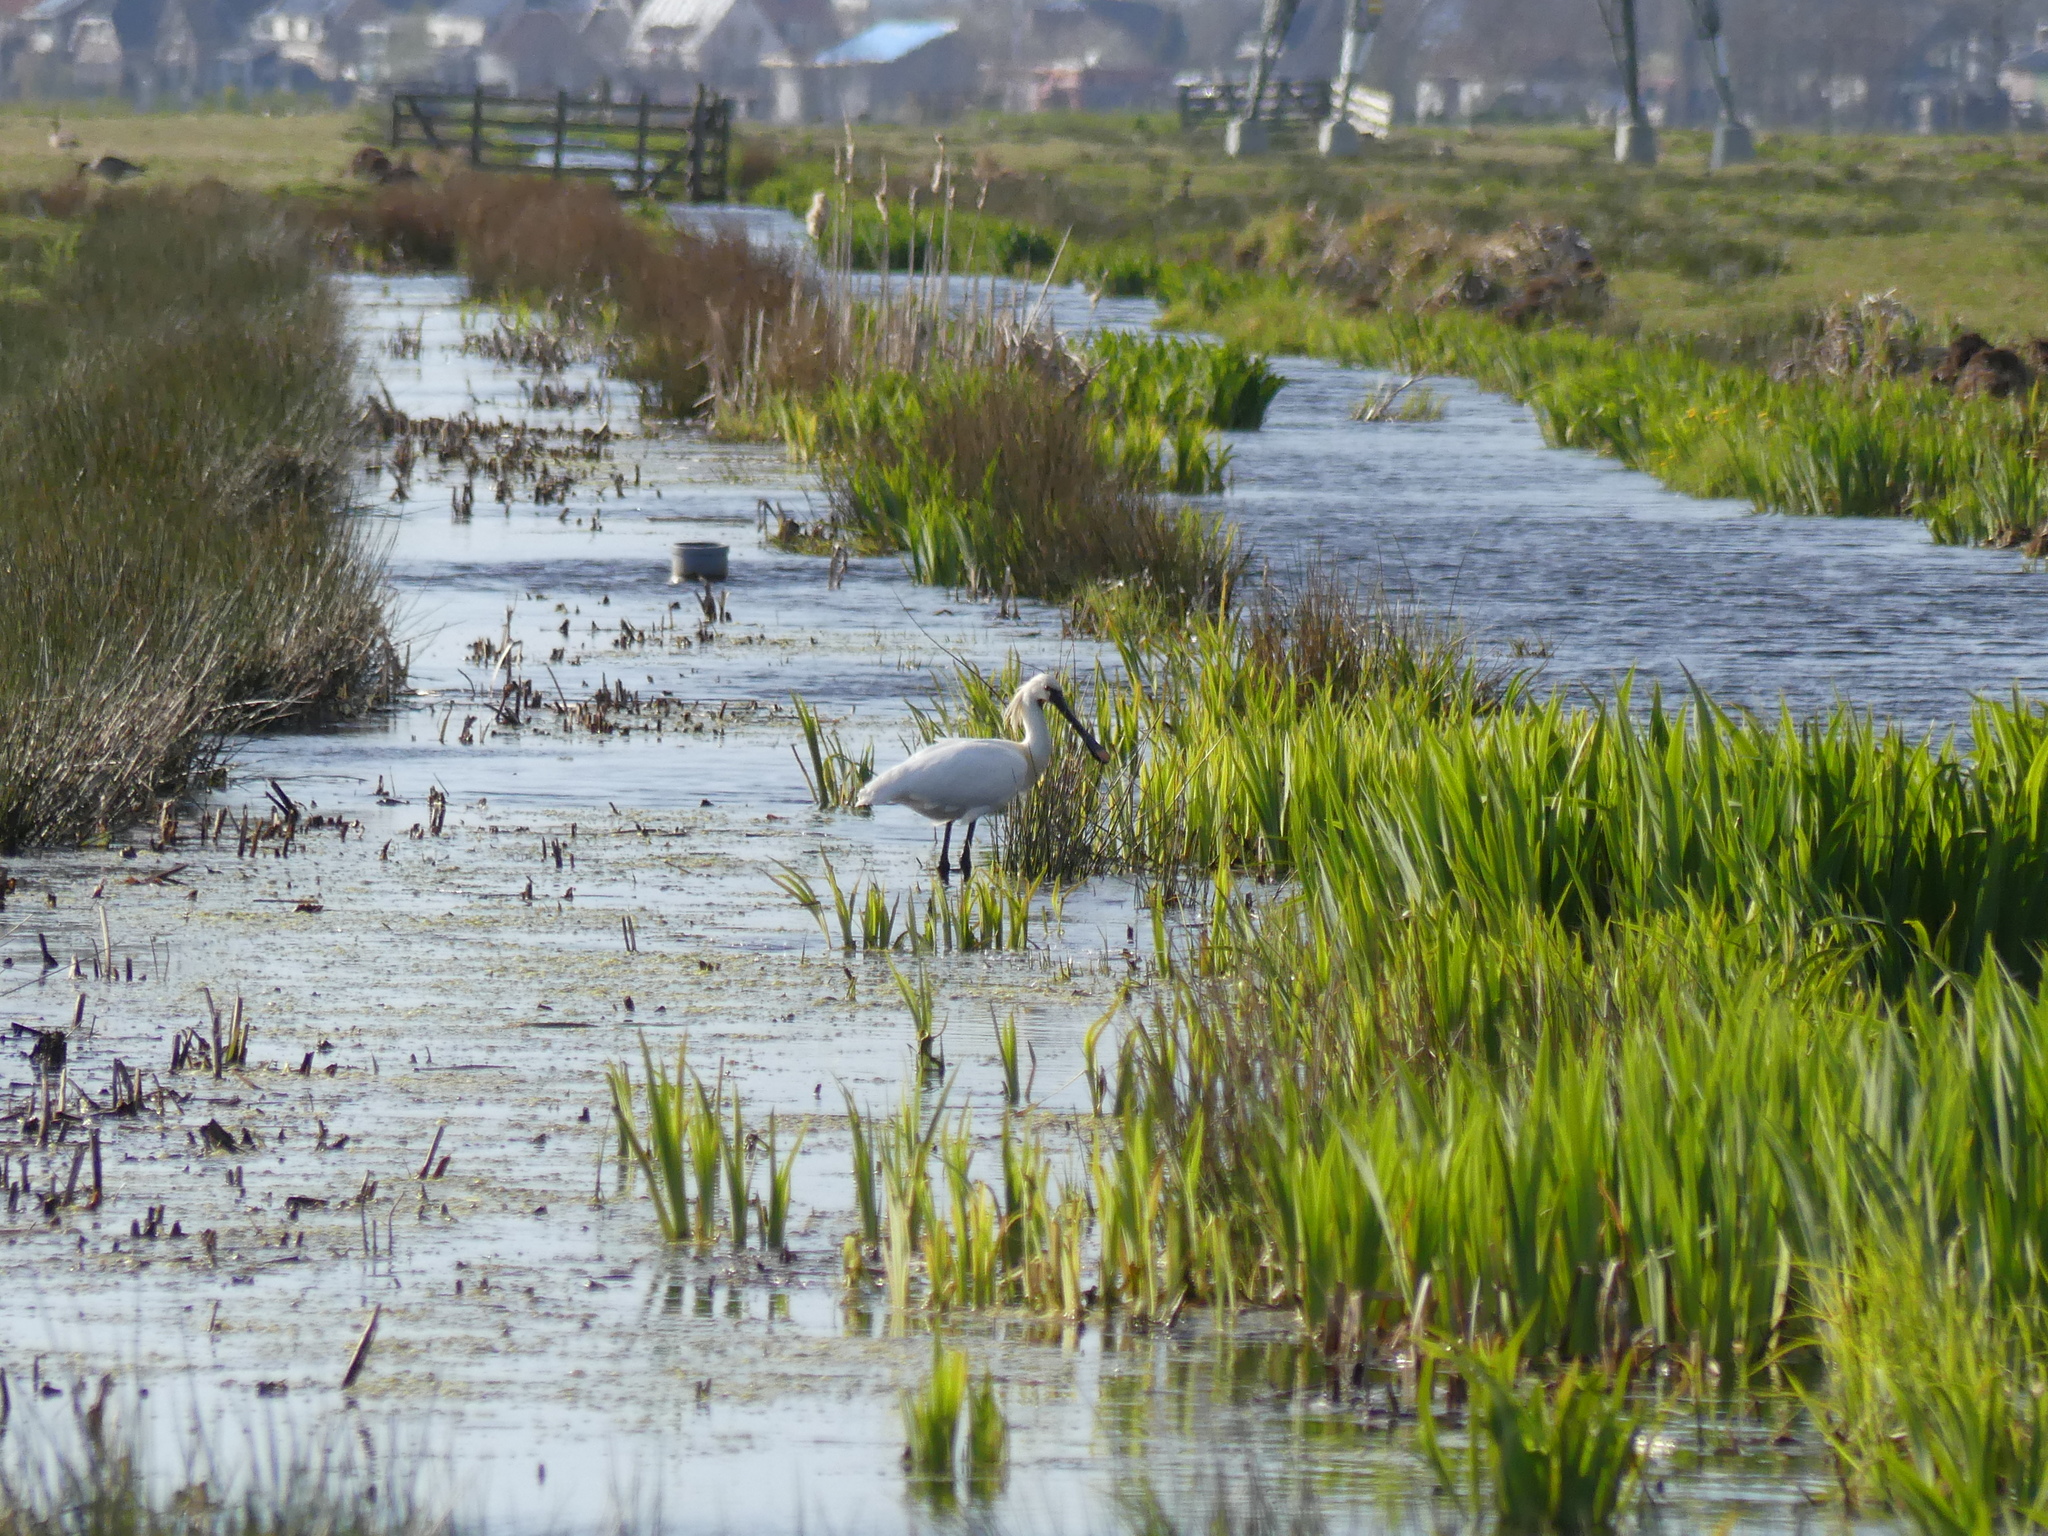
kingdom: Animalia
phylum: Chordata
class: Aves
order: Pelecaniformes
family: Threskiornithidae
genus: Platalea
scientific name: Platalea leucorodia
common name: Eurasian spoonbill
